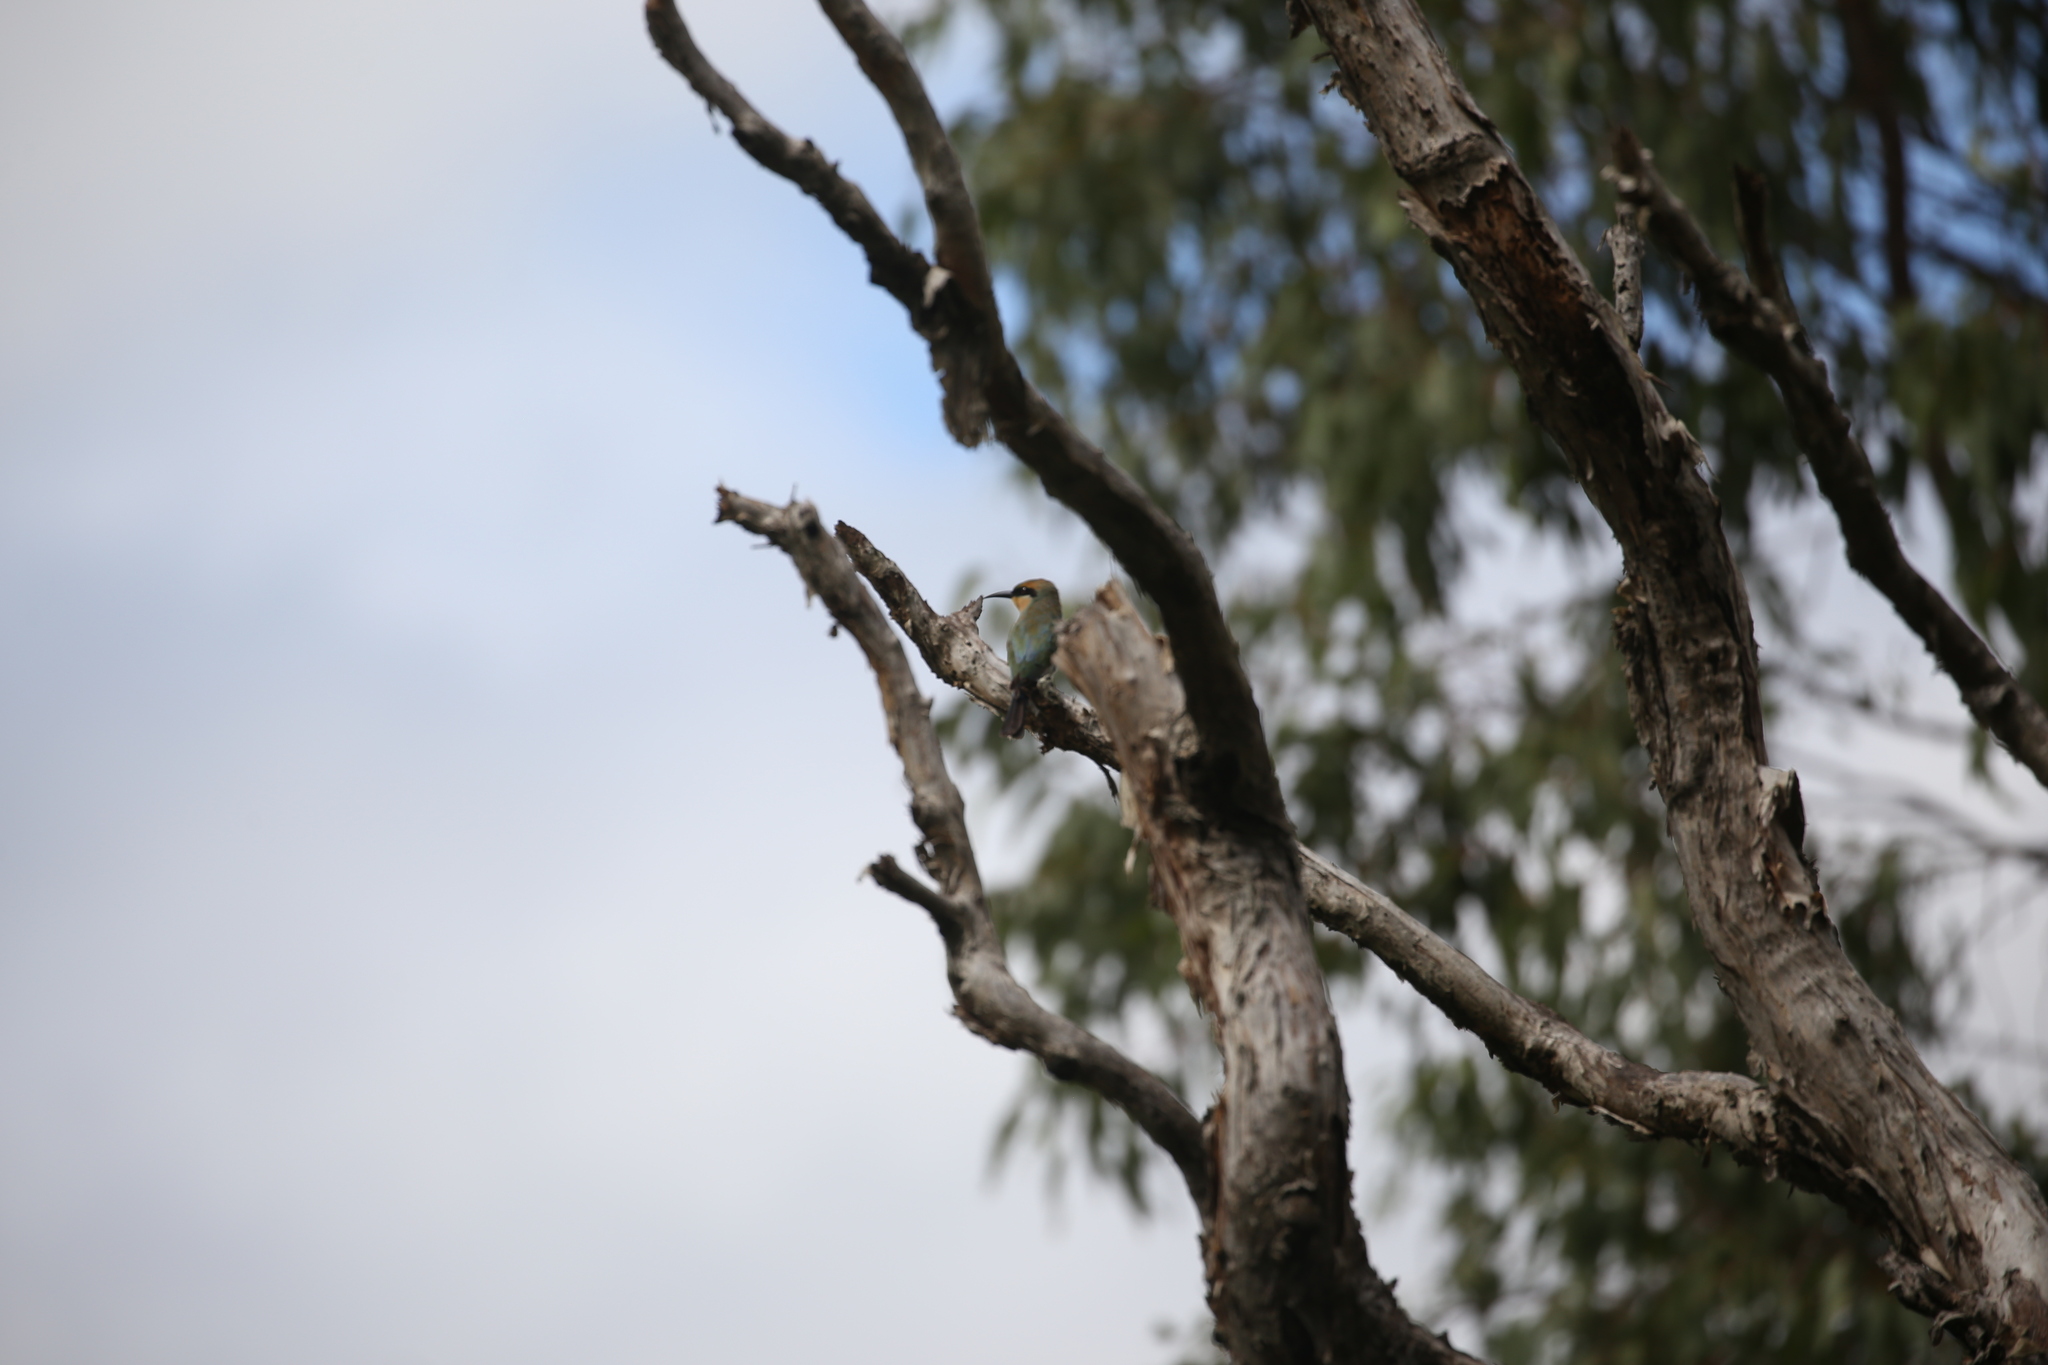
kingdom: Animalia
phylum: Chordata
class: Aves
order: Coraciiformes
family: Meropidae
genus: Merops
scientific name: Merops ornatus
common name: Rainbow bee-eater
